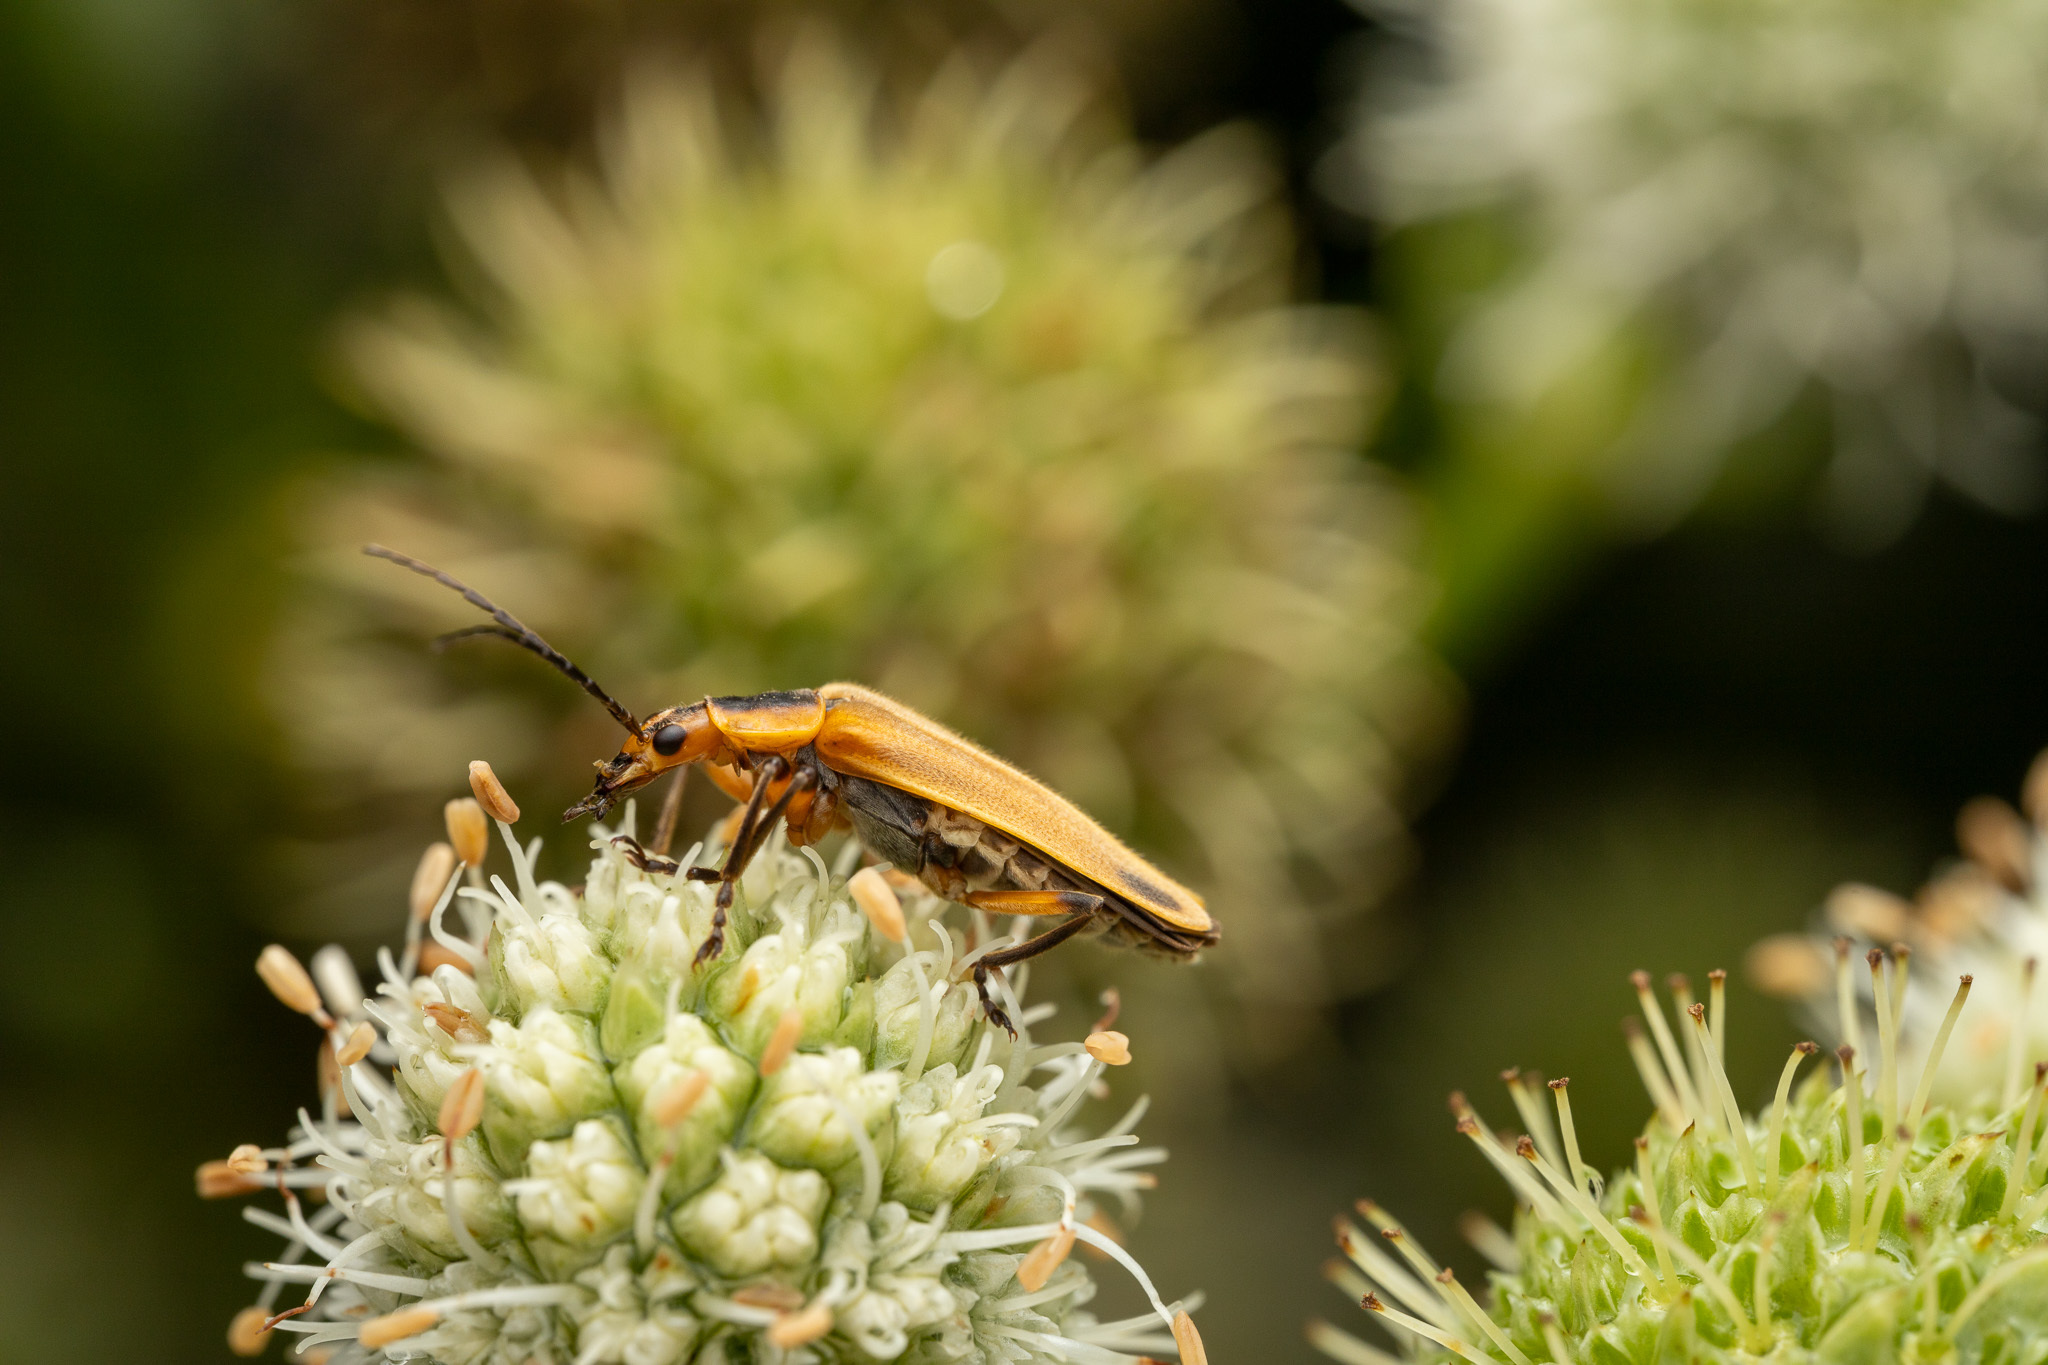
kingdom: Animalia
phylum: Arthropoda
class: Insecta
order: Coleoptera
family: Cantharidae
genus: Chauliognathus
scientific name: Chauliognathus marginatus
